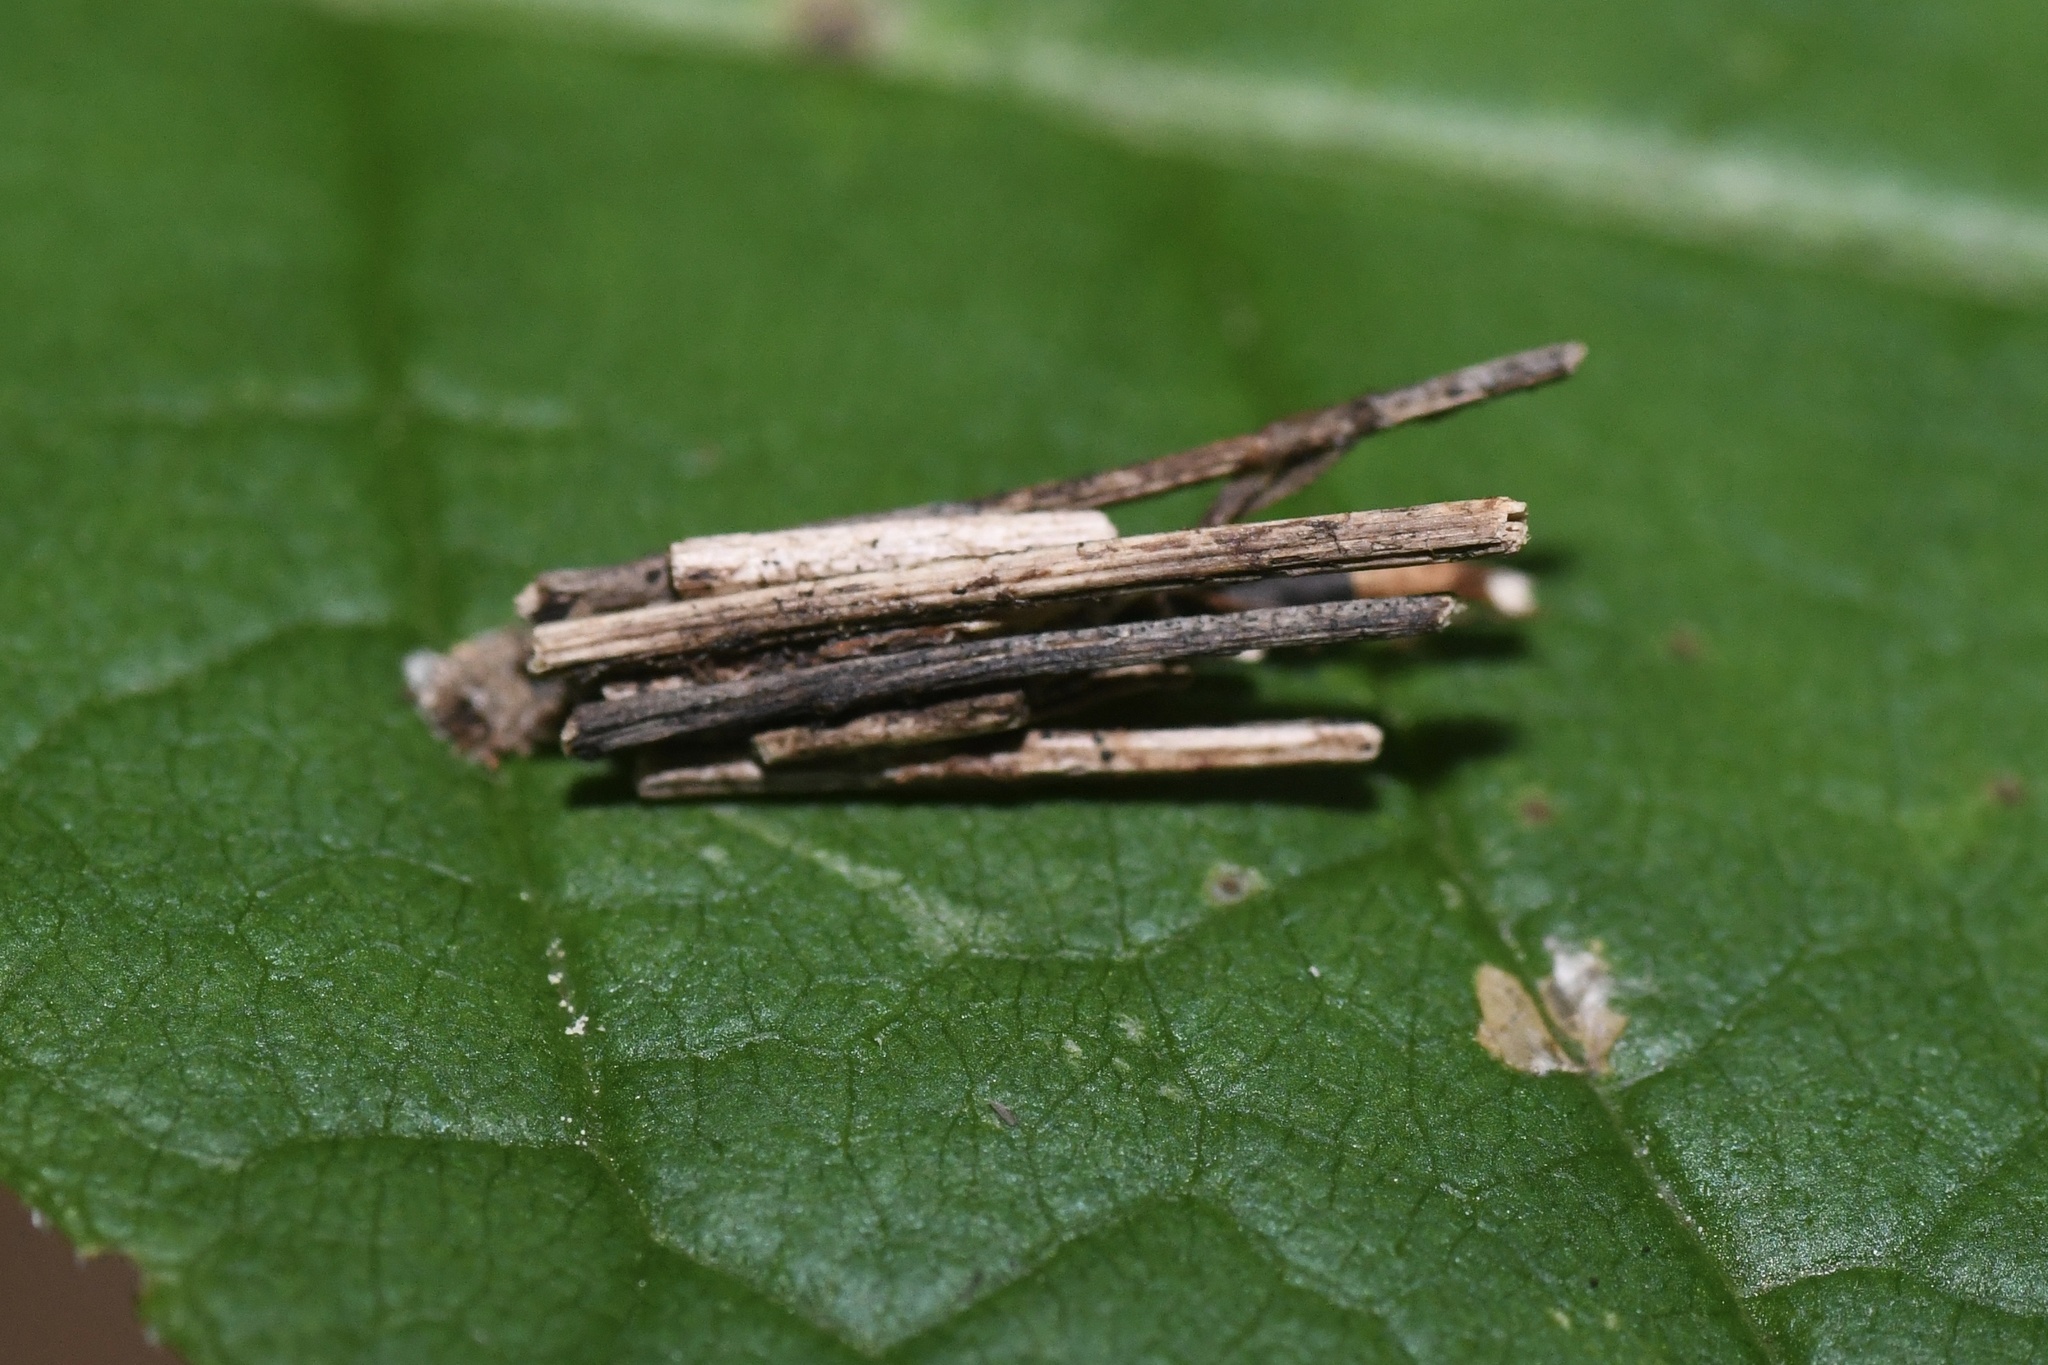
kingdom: Animalia
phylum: Arthropoda
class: Insecta
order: Lepidoptera
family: Psychidae
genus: Psyche
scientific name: Psyche casta
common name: Common sweep
